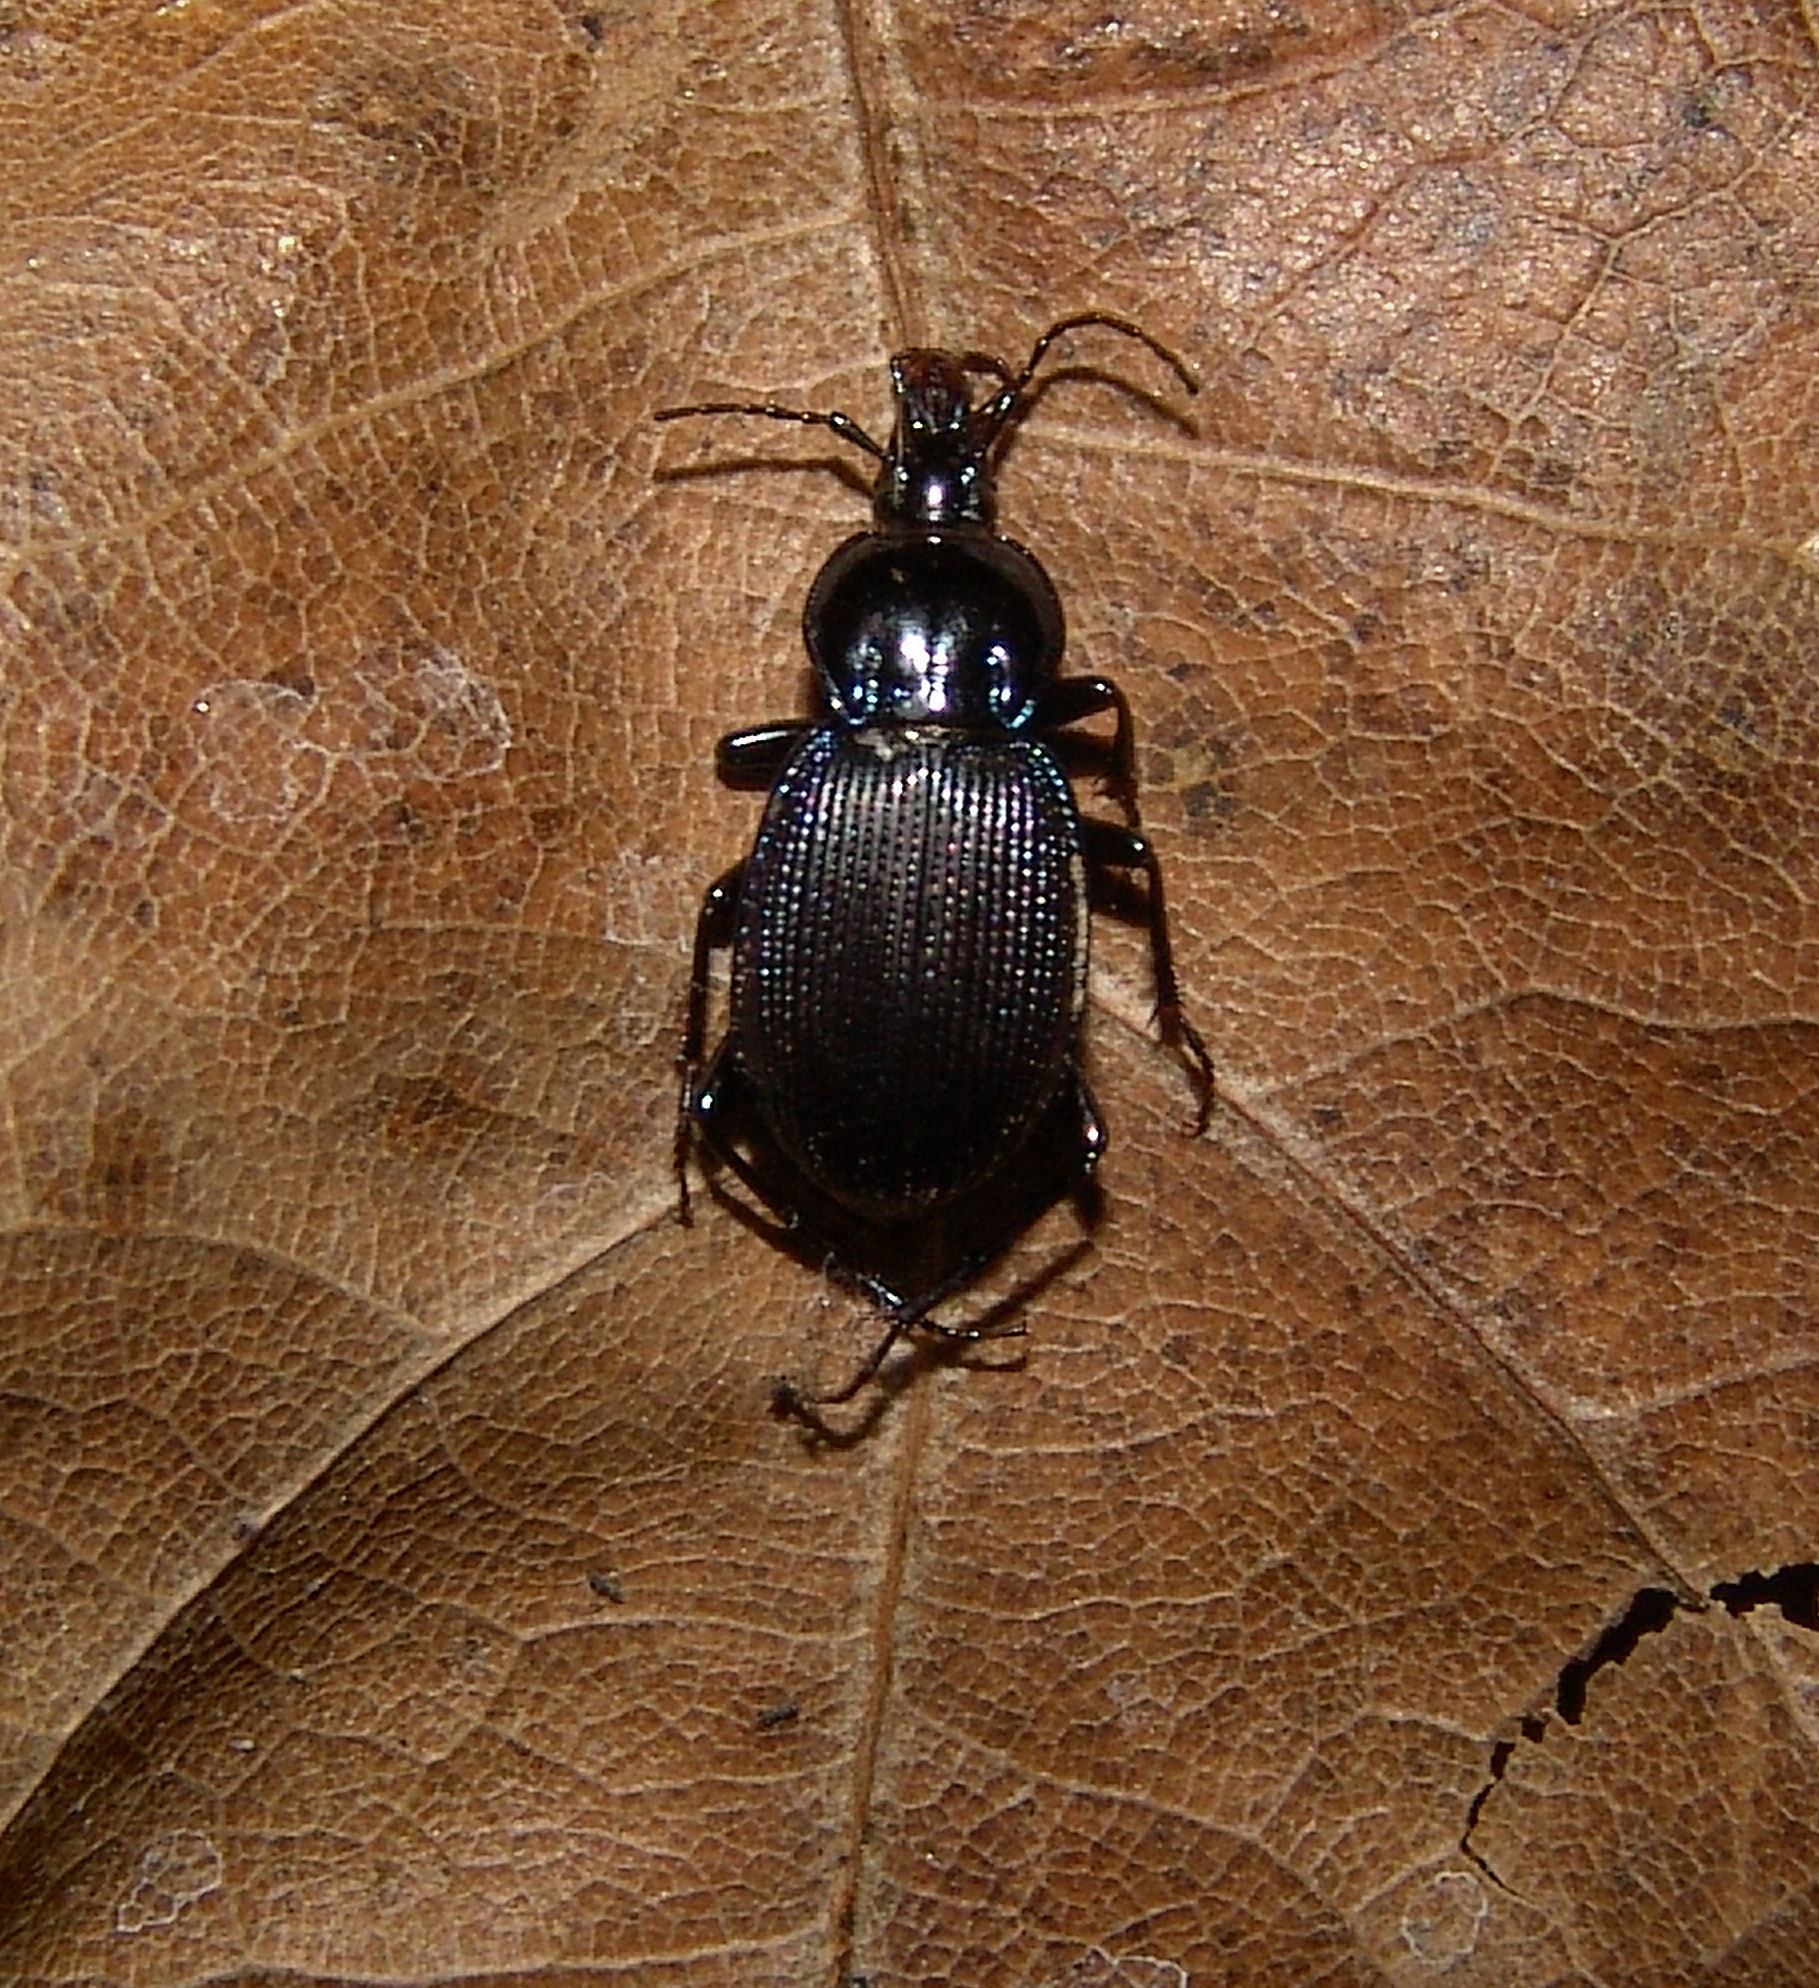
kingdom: Animalia
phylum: Arthropoda
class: Insecta
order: Coleoptera
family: Carabidae
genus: Sphaeroderus
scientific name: Sphaeroderus indianae
